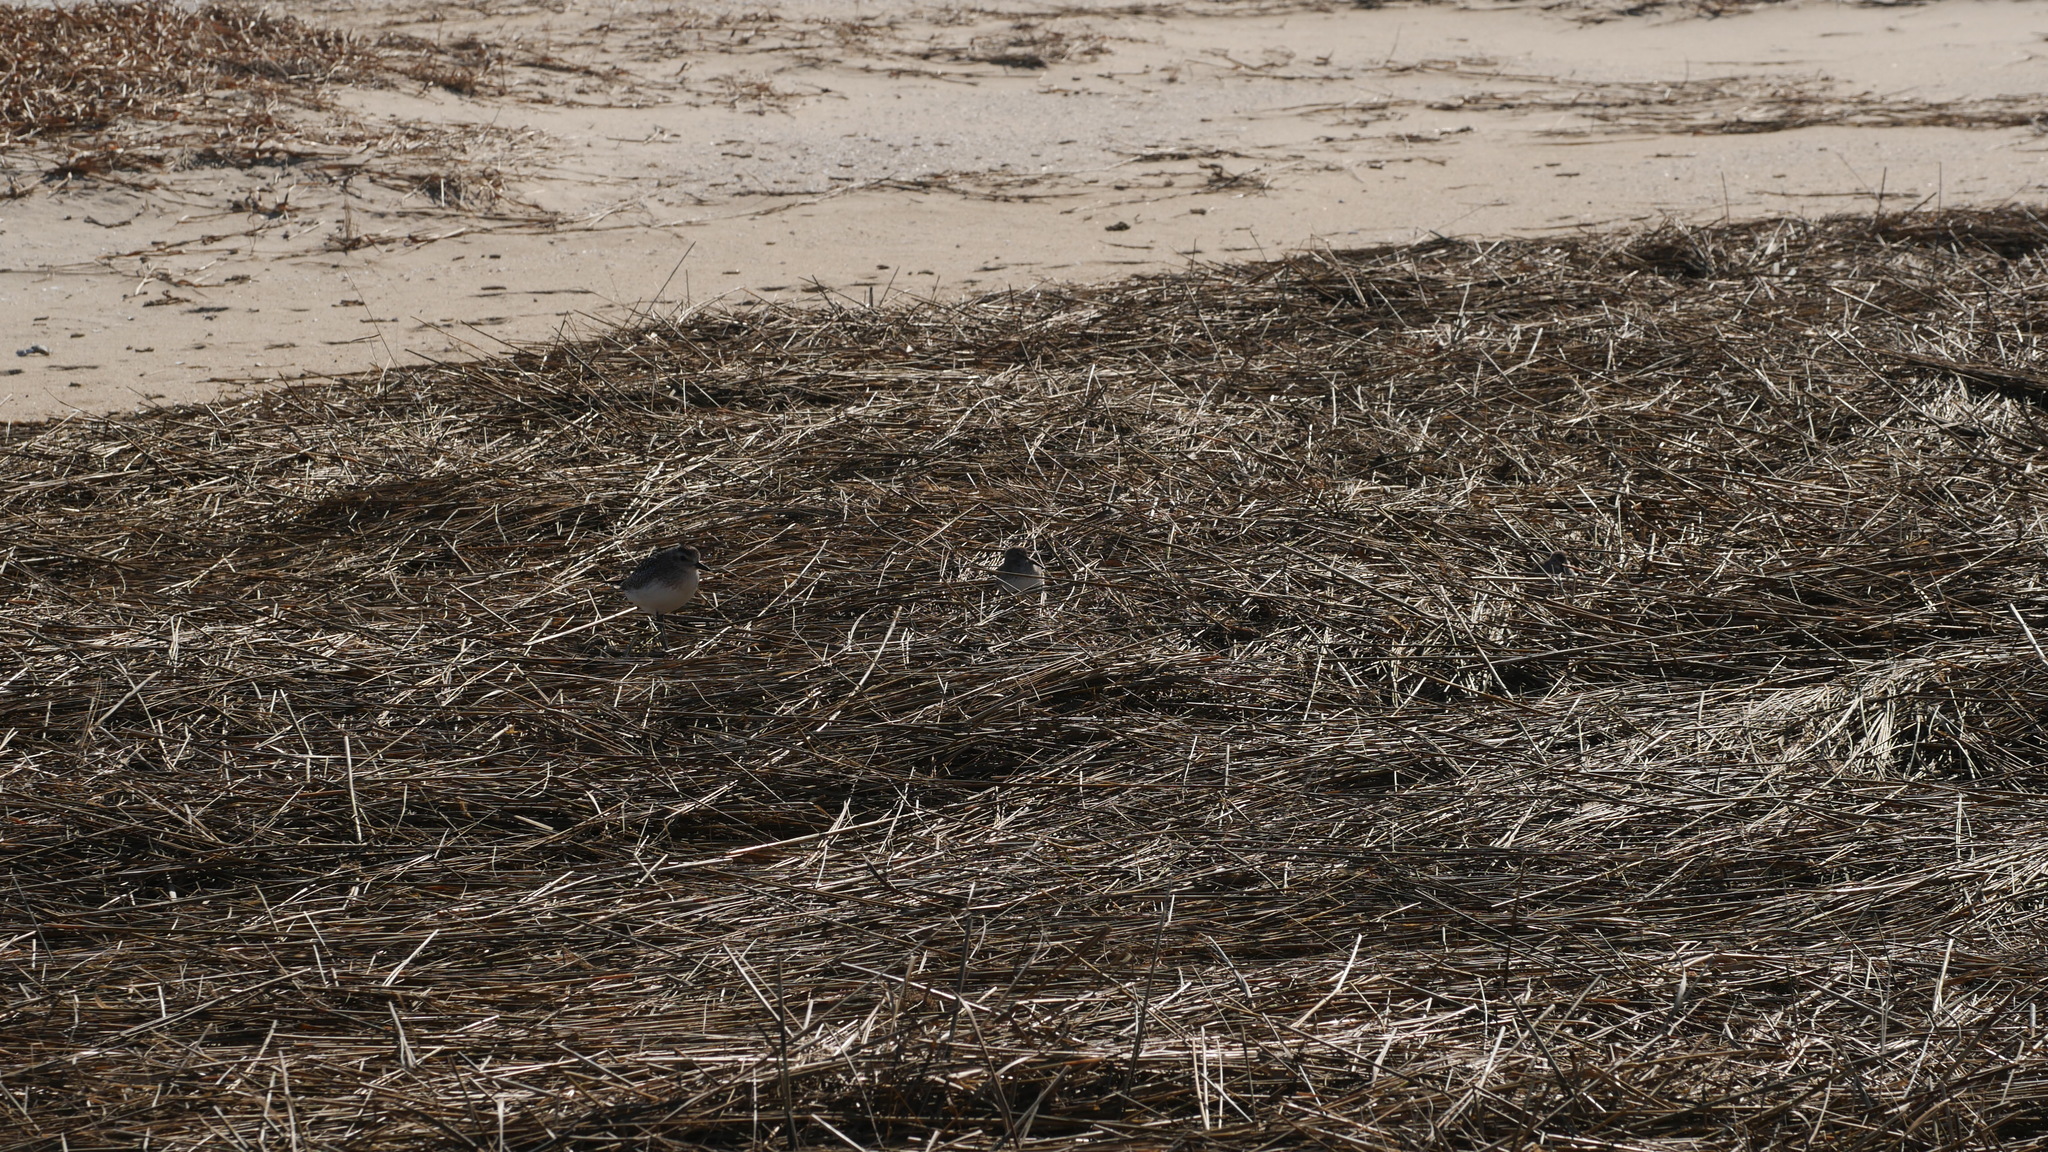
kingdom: Animalia
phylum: Chordata
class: Aves
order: Charadriiformes
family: Scolopacidae
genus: Calidris
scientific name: Calidris alpina
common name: Dunlin
